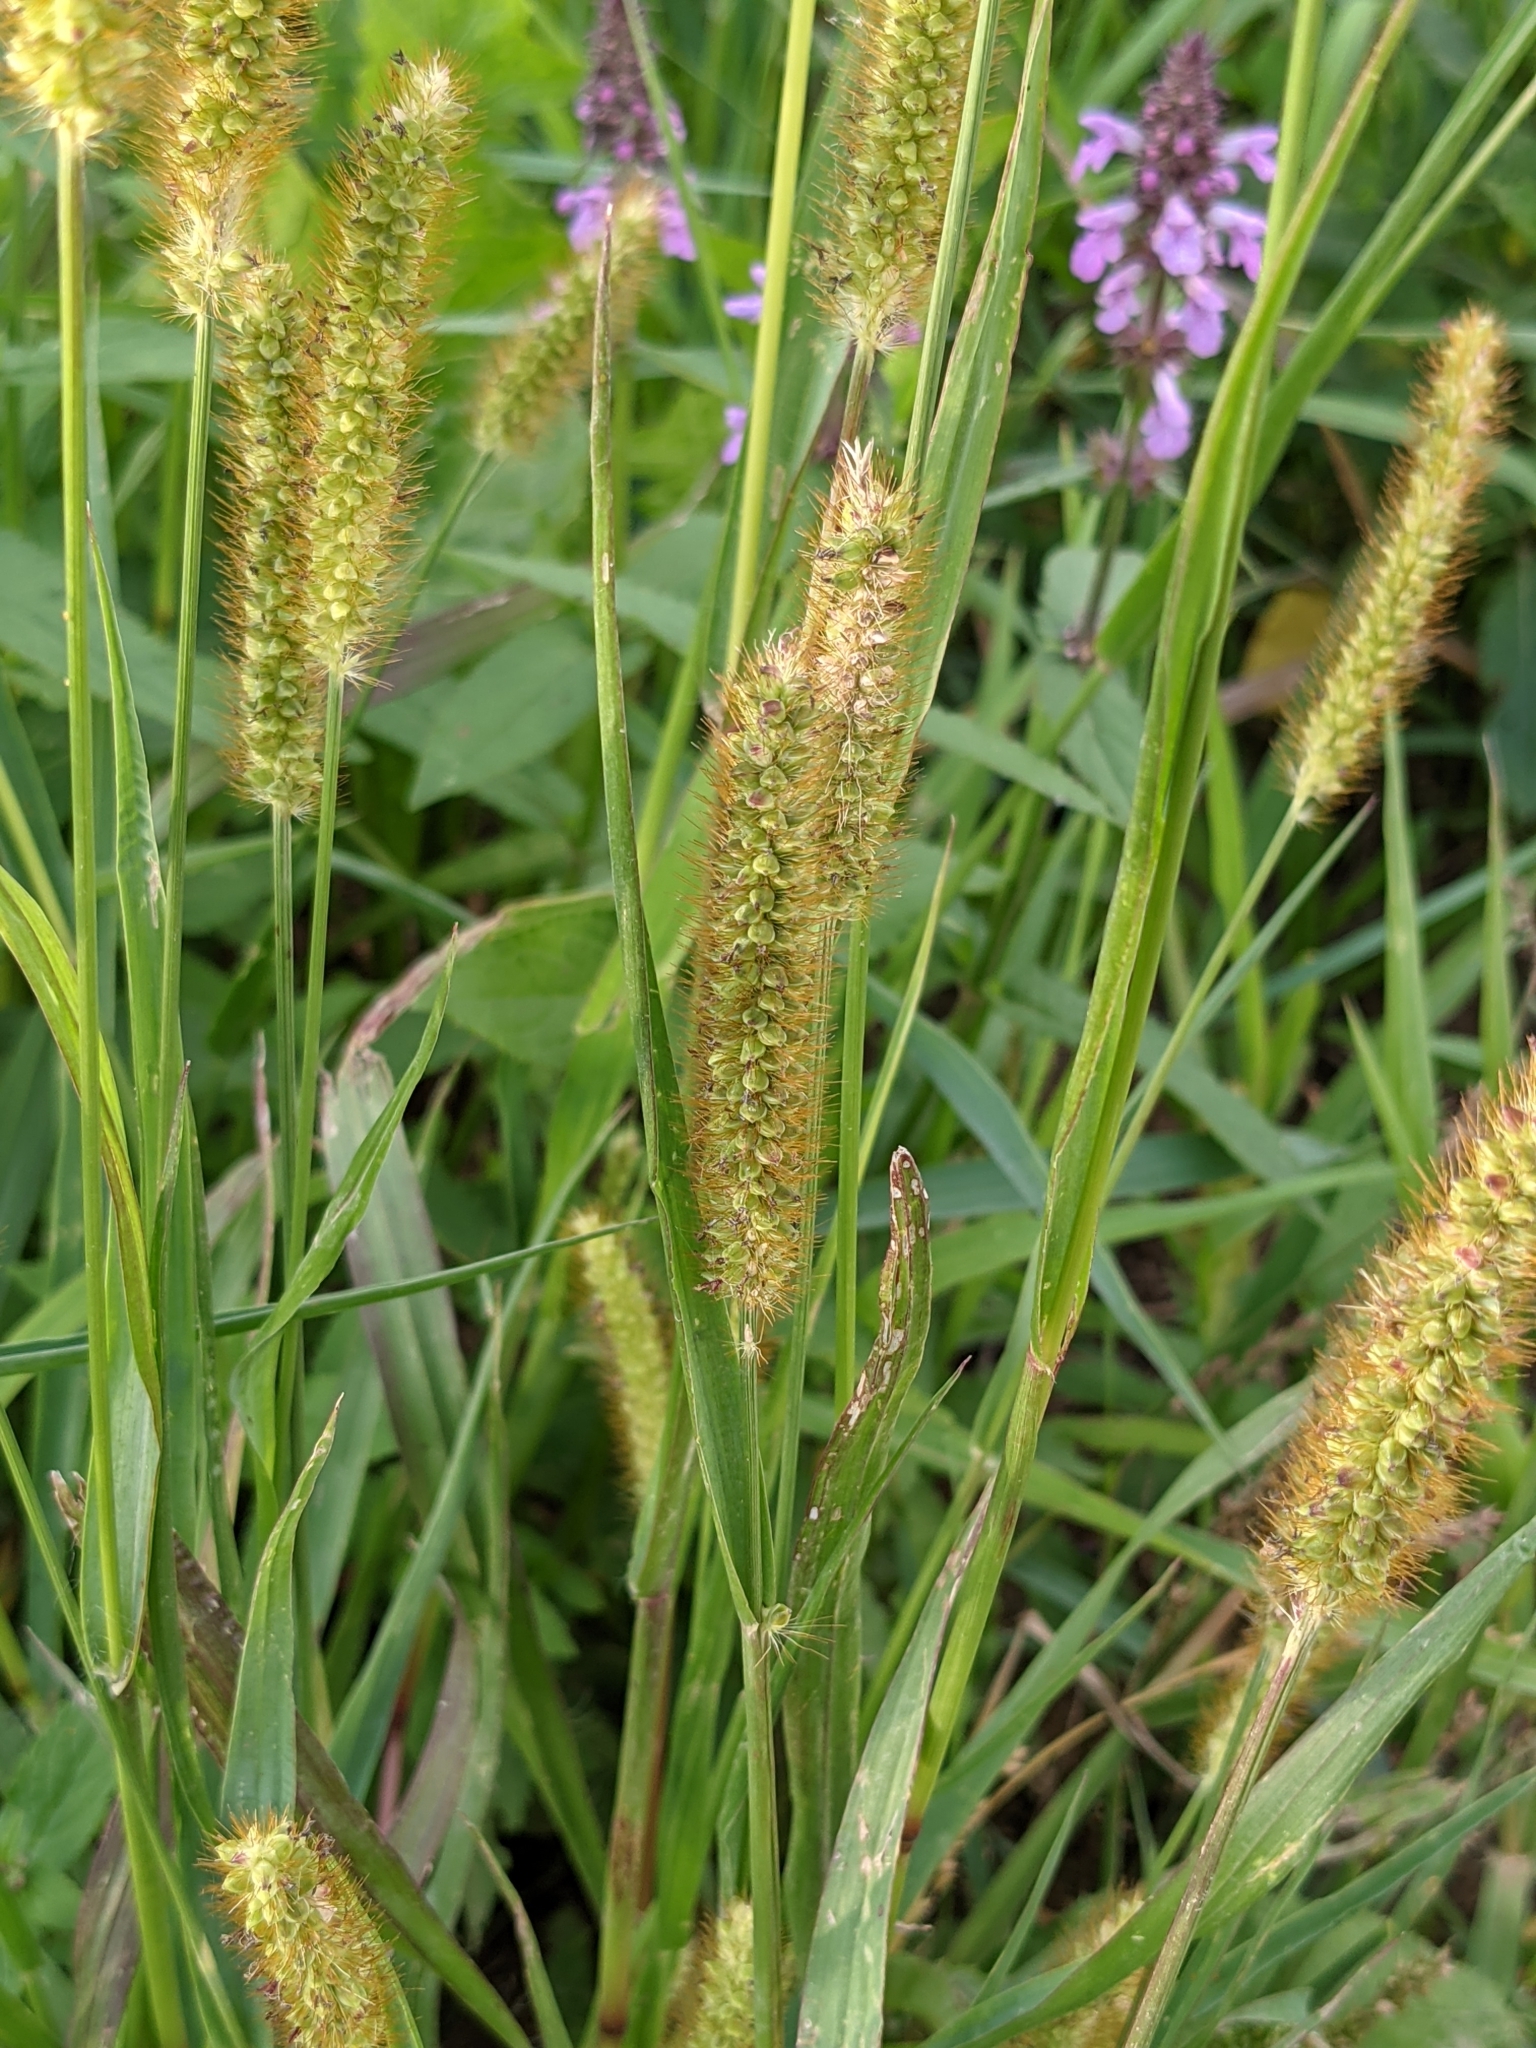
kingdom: Plantae
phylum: Tracheophyta
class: Liliopsida
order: Poales
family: Poaceae
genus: Setaria
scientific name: Setaria pumila
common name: Yellow bristle-grass
